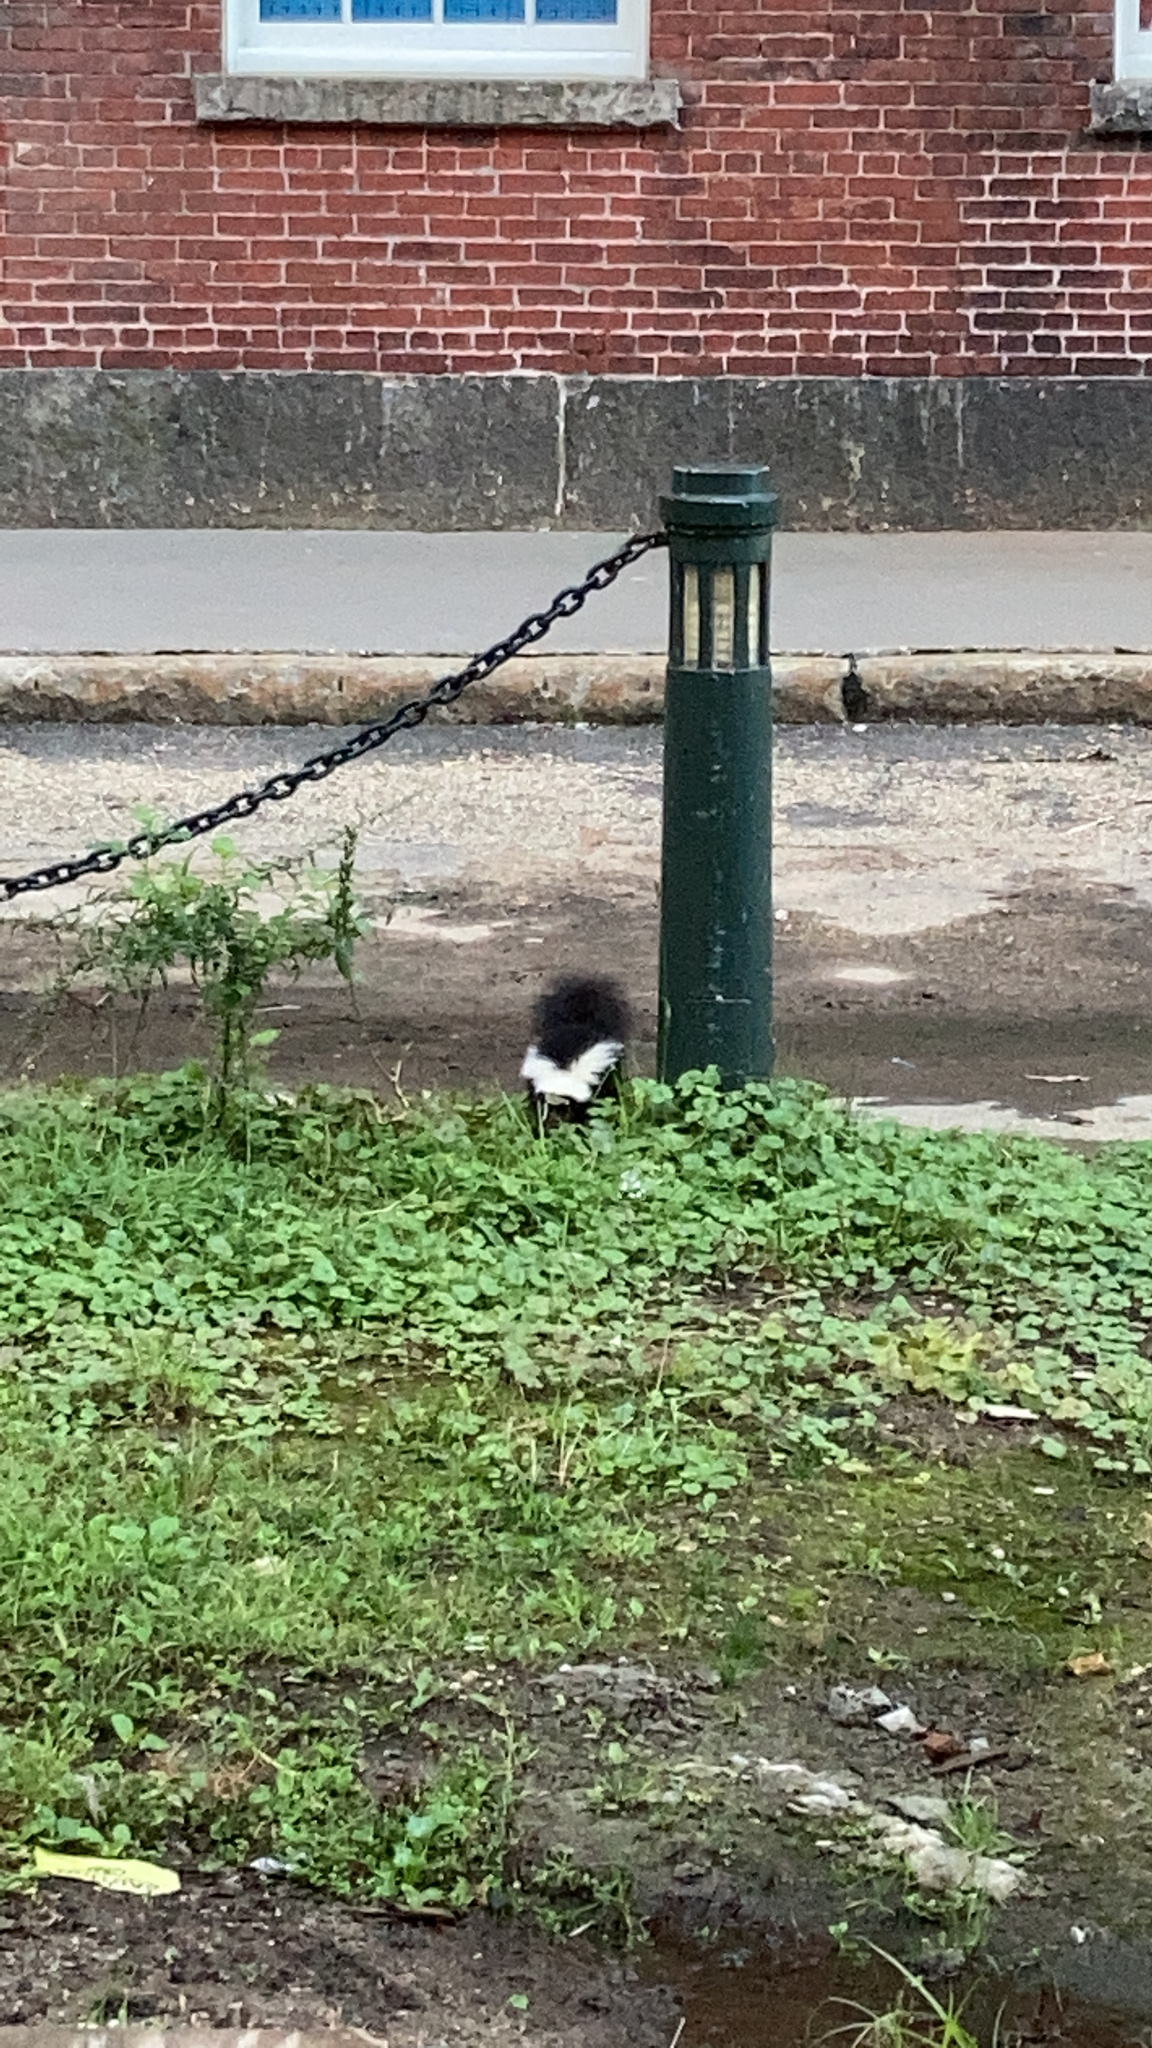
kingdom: Animalia
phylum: Chordata
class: Mammalia
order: Carnivora
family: Mephitidae
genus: Mephitis
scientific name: Mephitis mephitis
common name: Striped skunk
